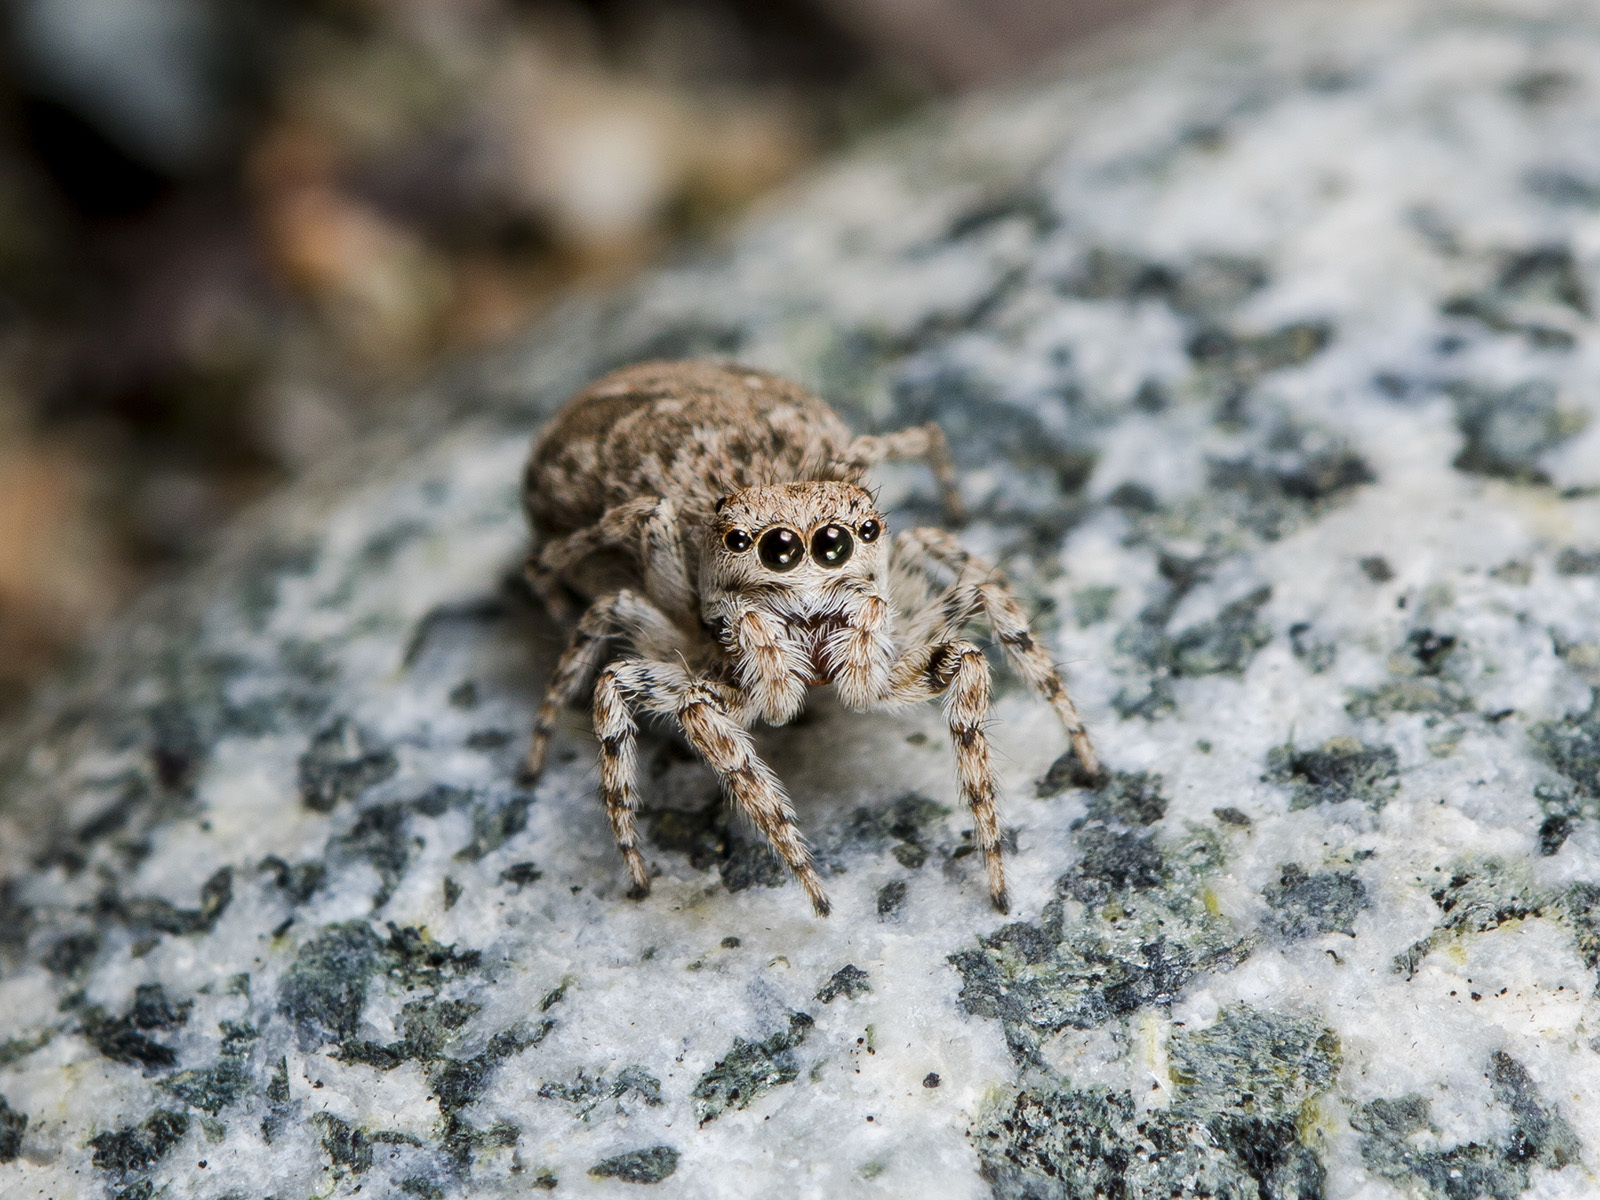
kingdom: Animalia
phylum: Arthropoda
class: Arachnida
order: Araneae
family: Salticidae
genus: Attulus
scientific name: Attulus avocator
